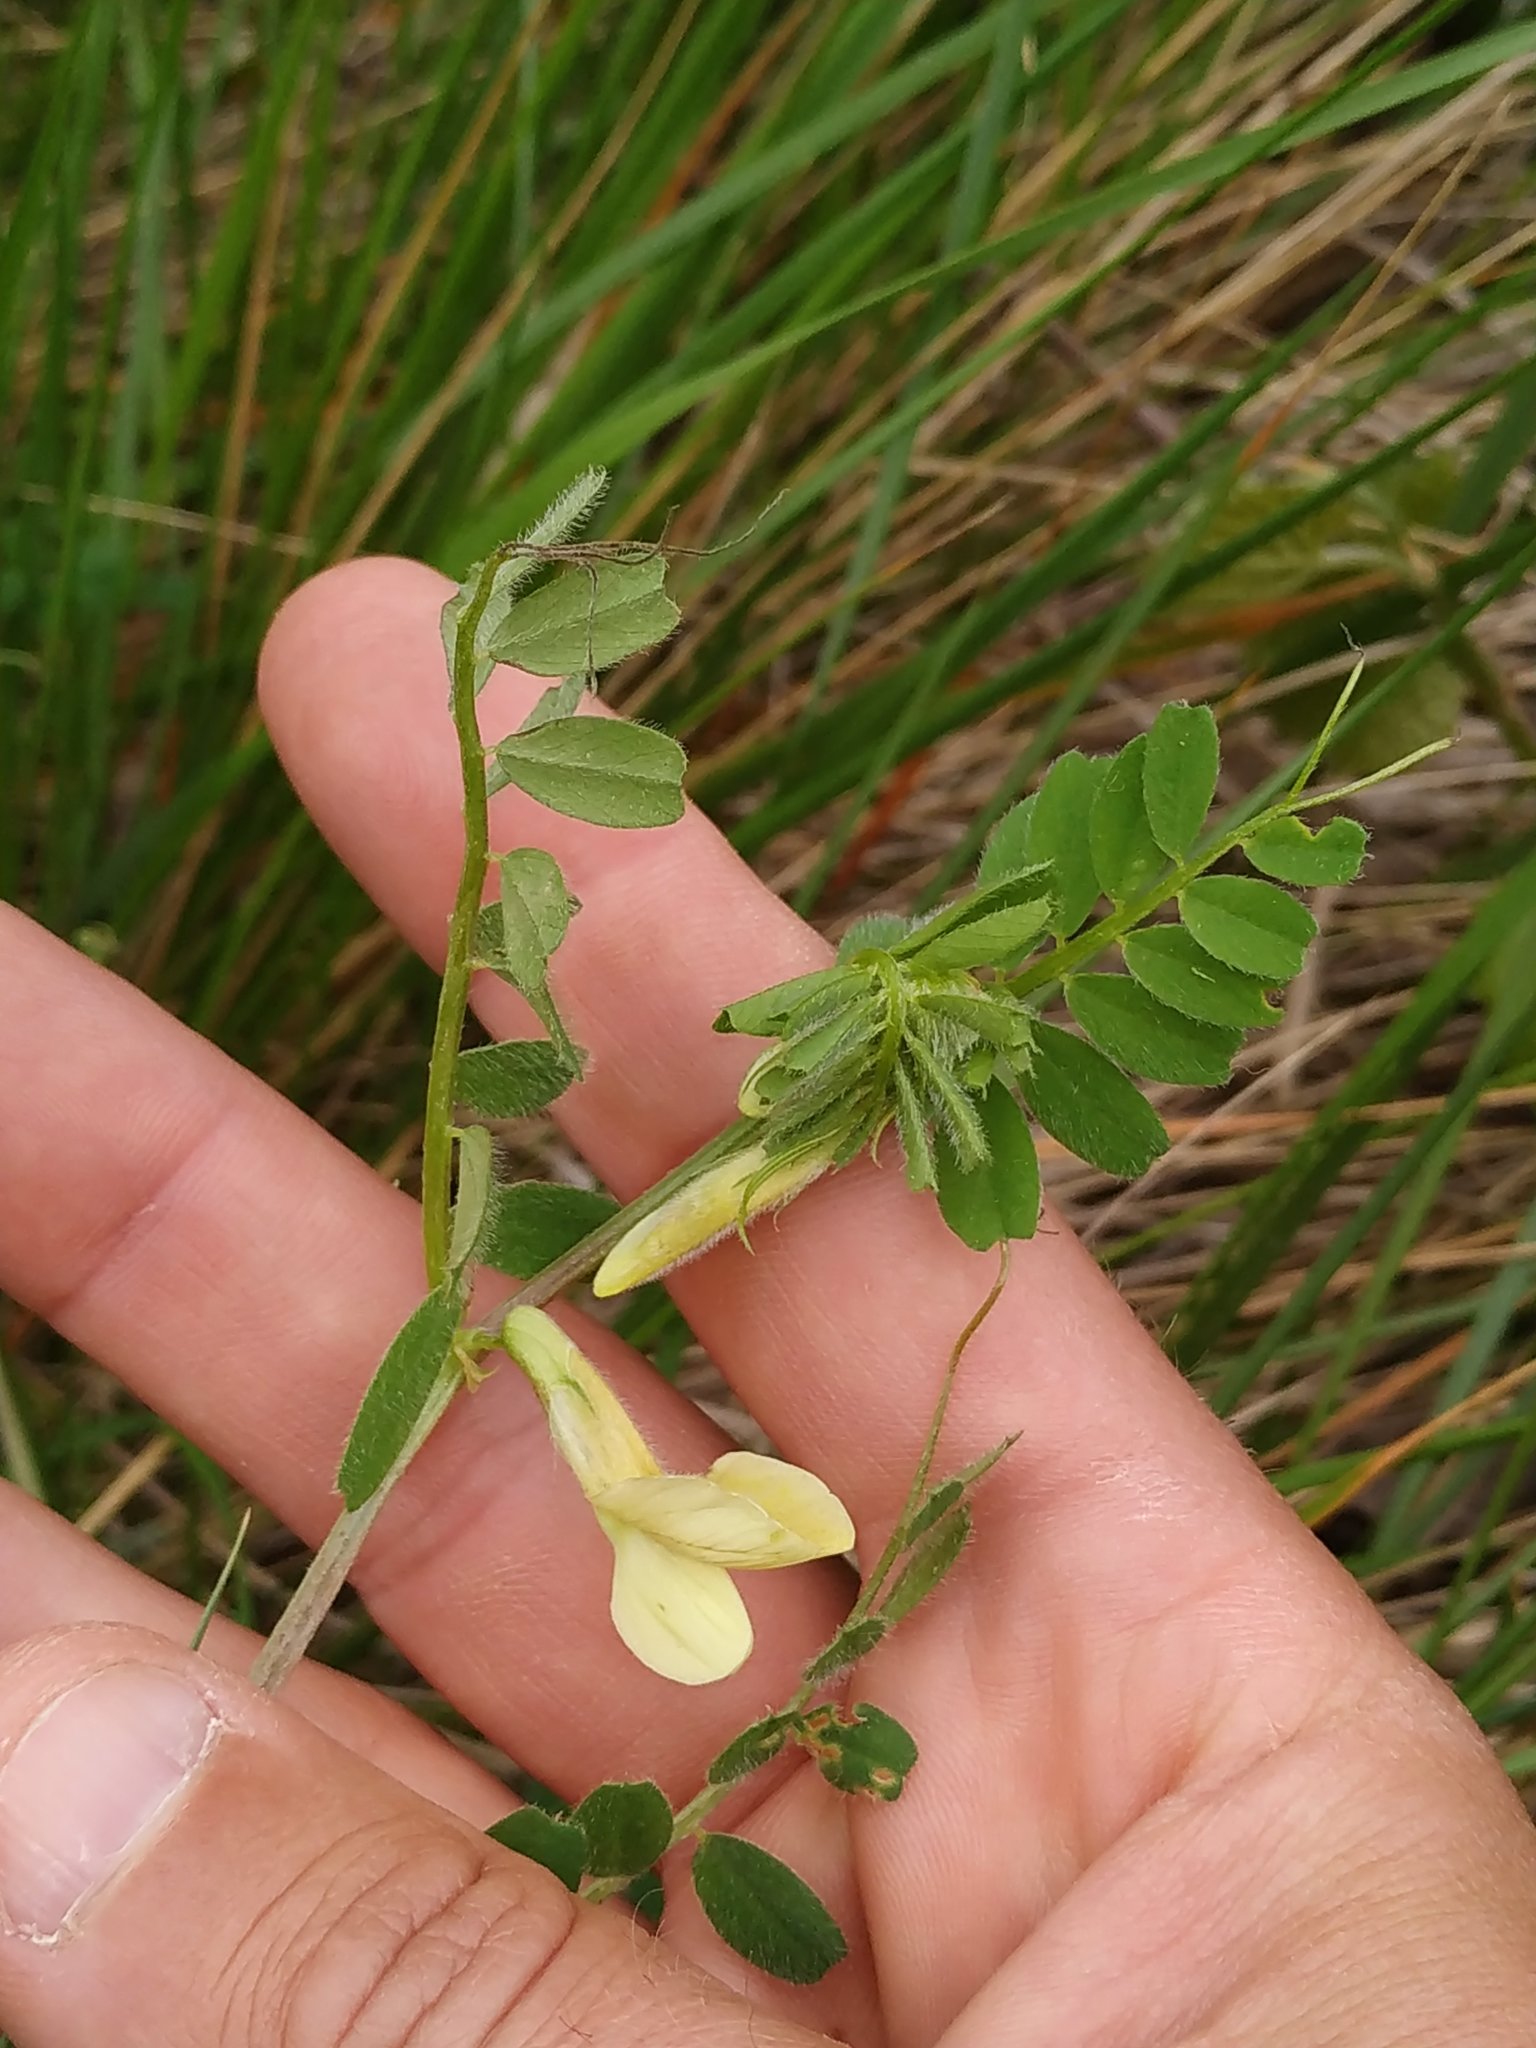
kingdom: Plantae
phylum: Tracheophyta
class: Magnoliopsida
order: Fabales
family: Fabaceae
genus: Vicia
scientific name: Vicia hybrida
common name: Hairy yellow vetch
